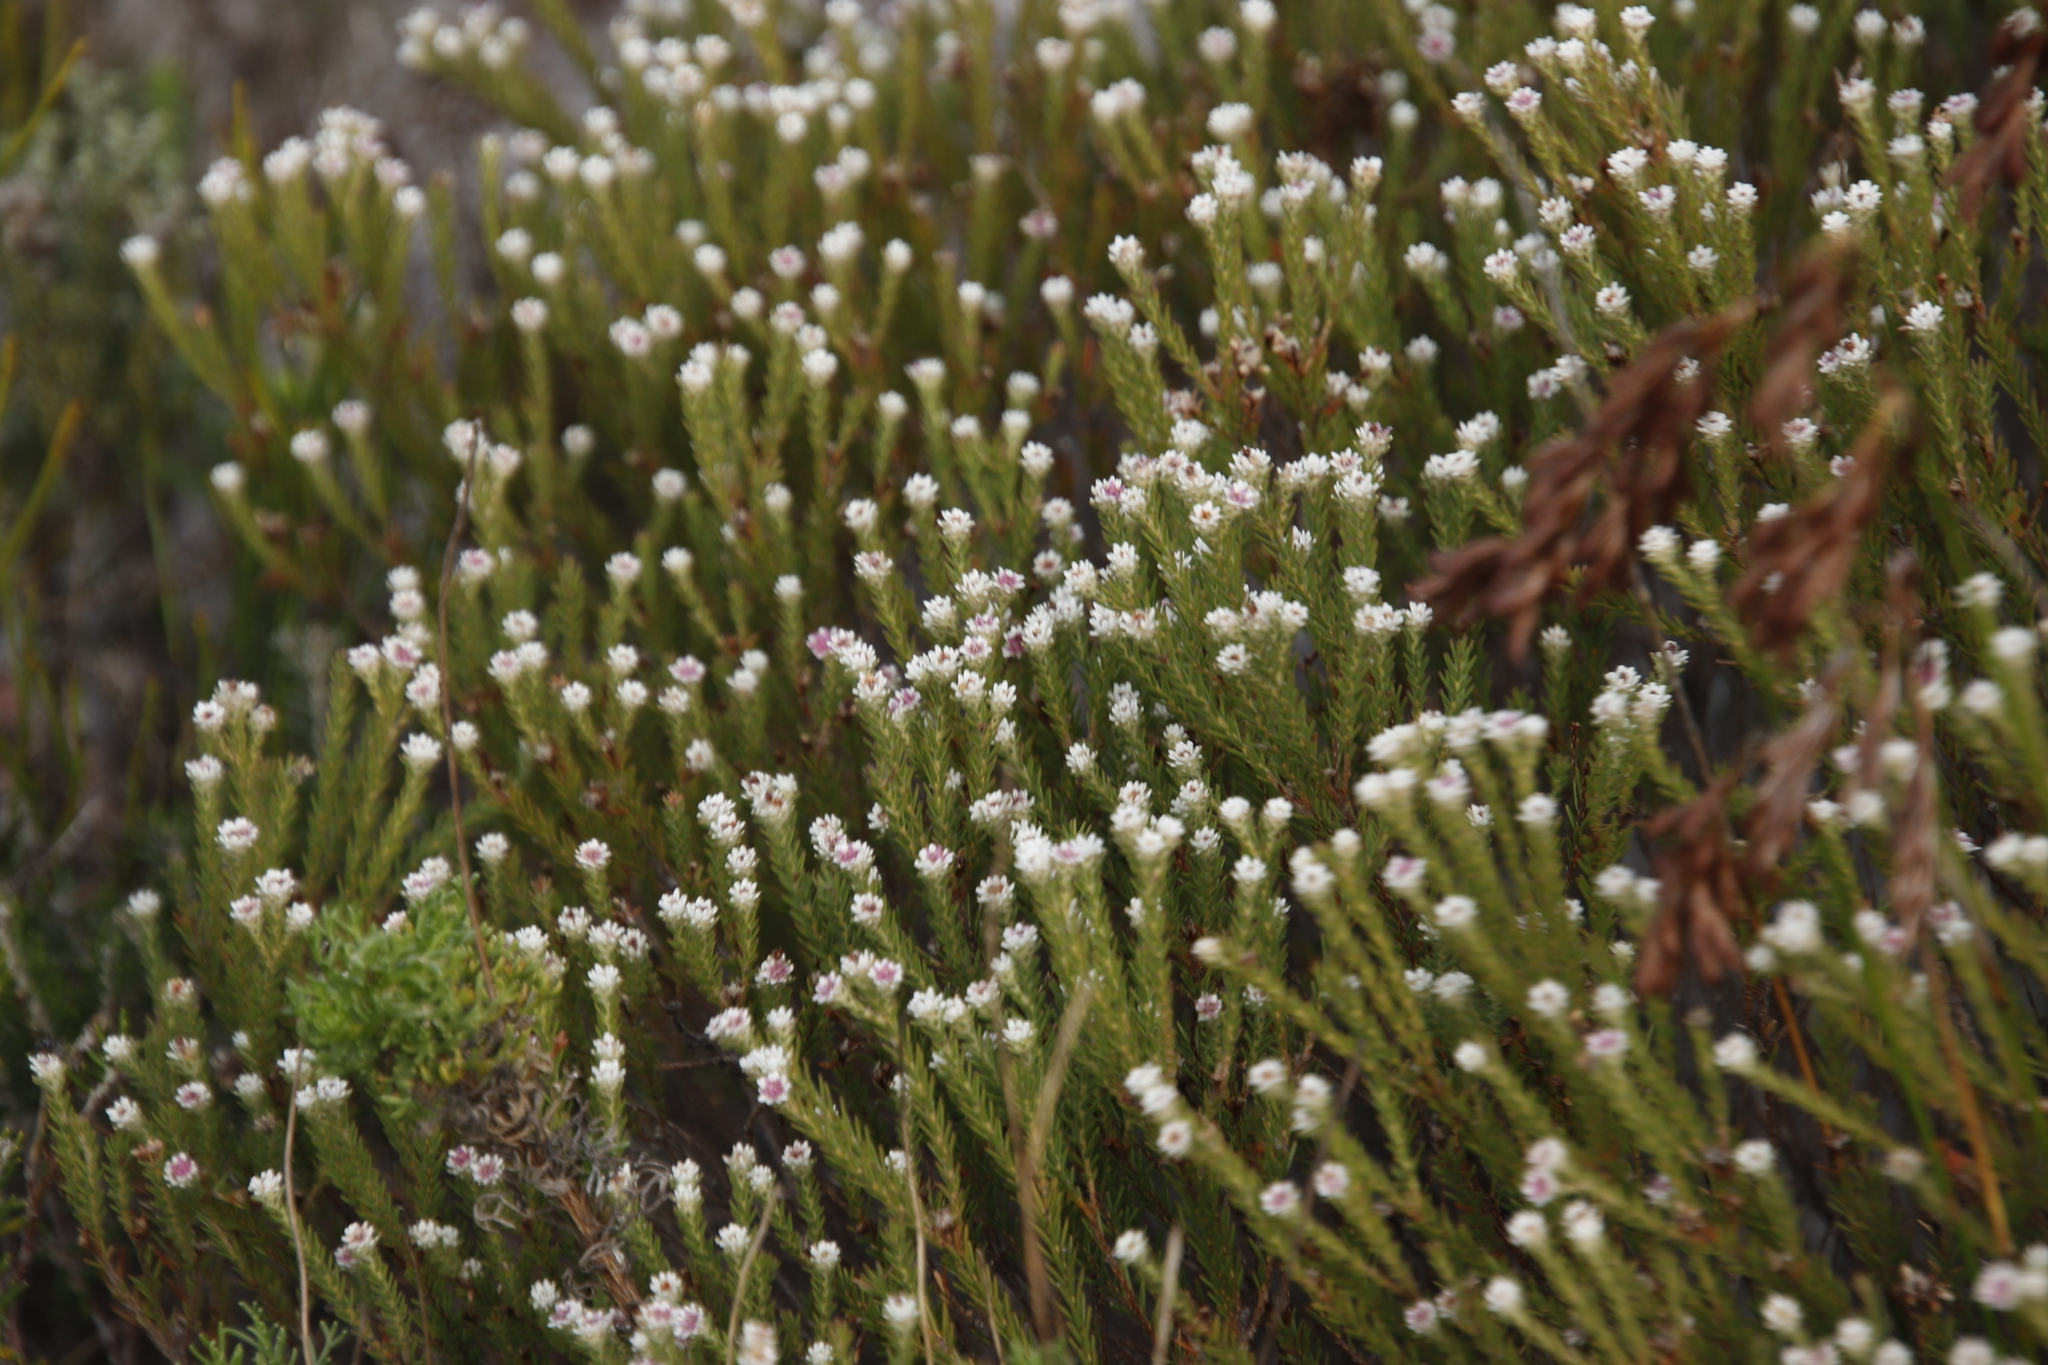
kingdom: Plantae
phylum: Tracheophyta
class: Magnoliopsida
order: Bruniales
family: Bruniaceae
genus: Staavia
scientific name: Staavia radiata
